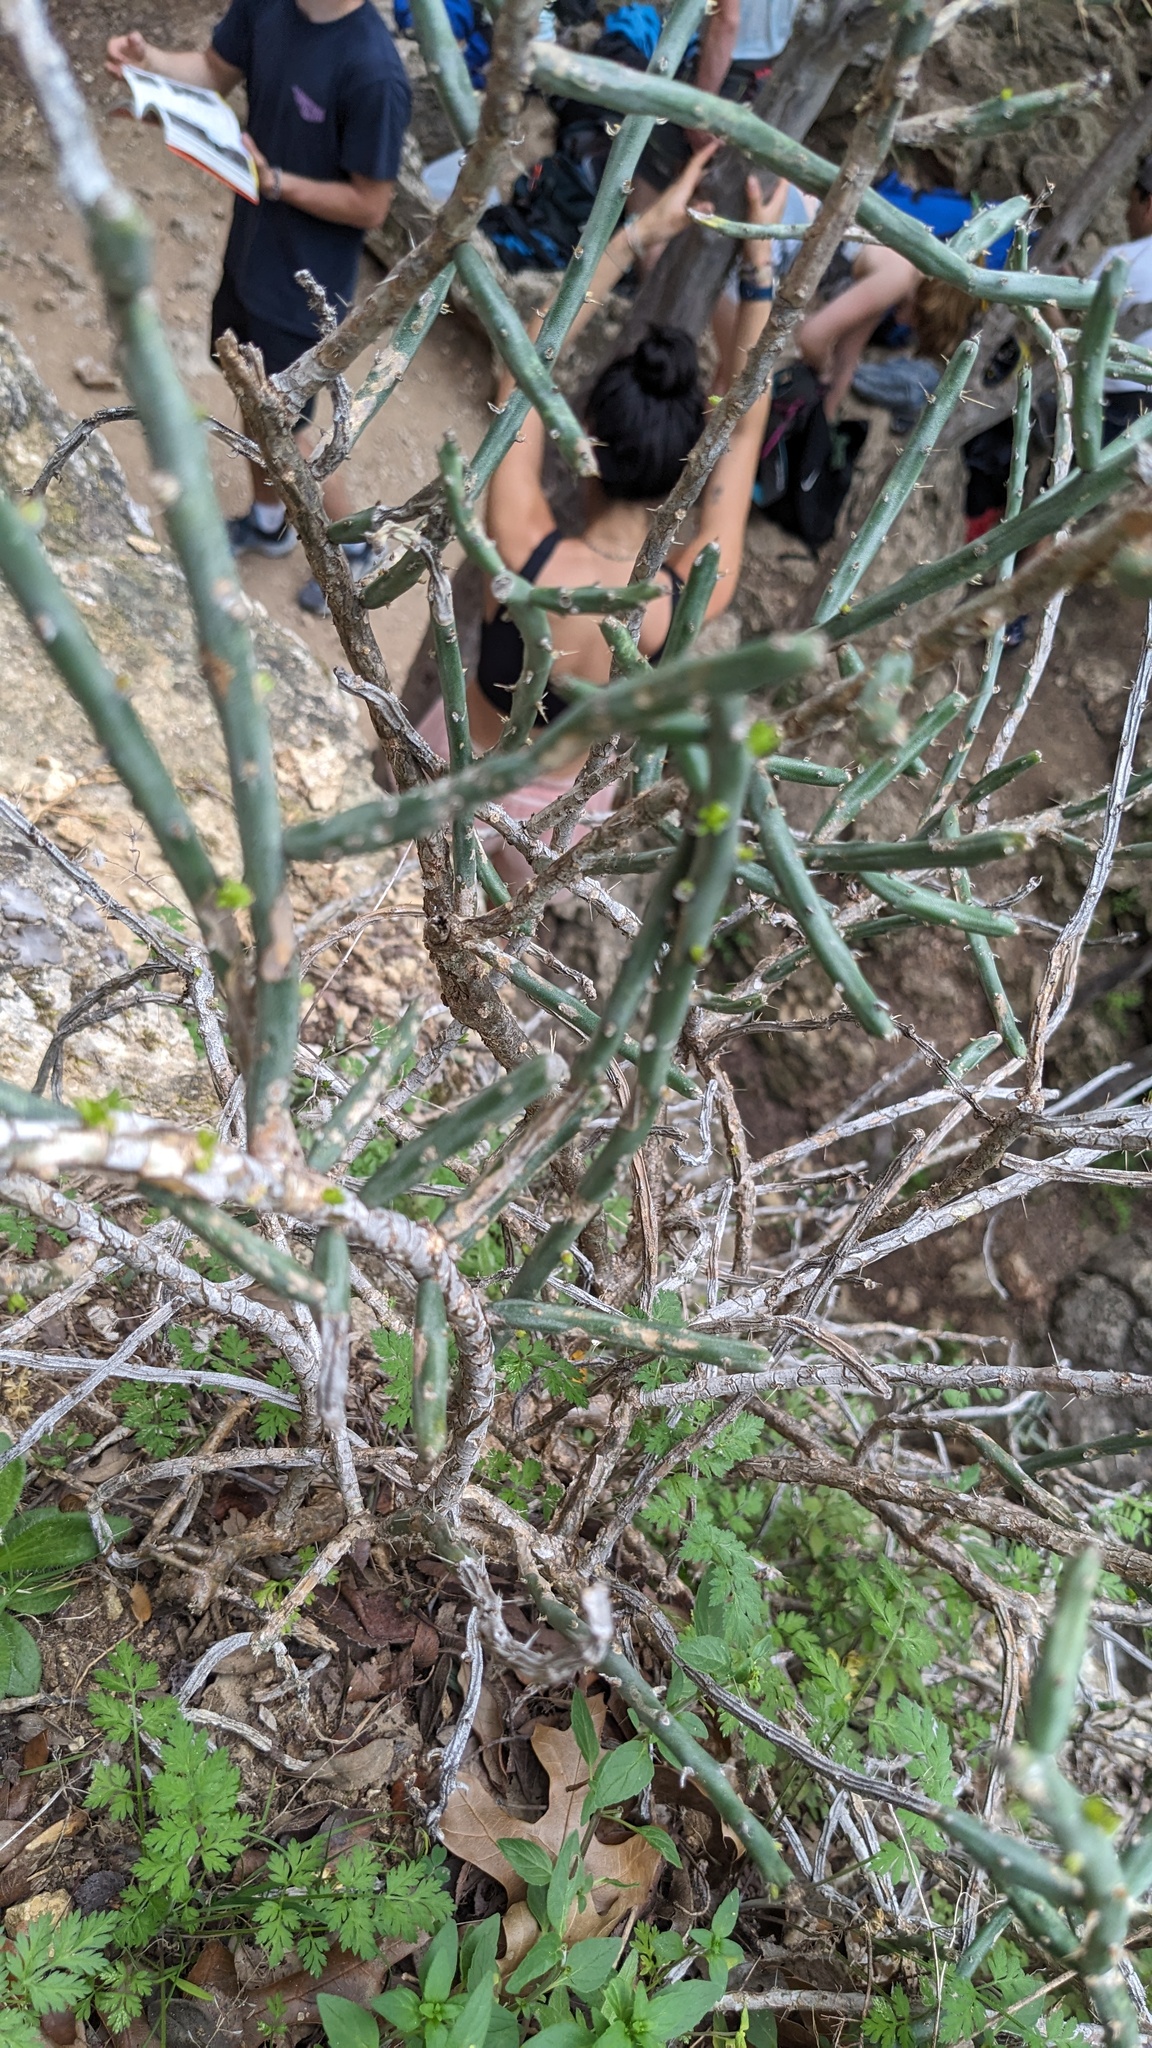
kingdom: Plantae
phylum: Tracheophyta
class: Magnoliopsida
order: Caryophyllales
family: Cactaceae
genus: Cylindropuntia
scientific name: Cylindropuntia leptocaulis
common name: Christmas cactus
